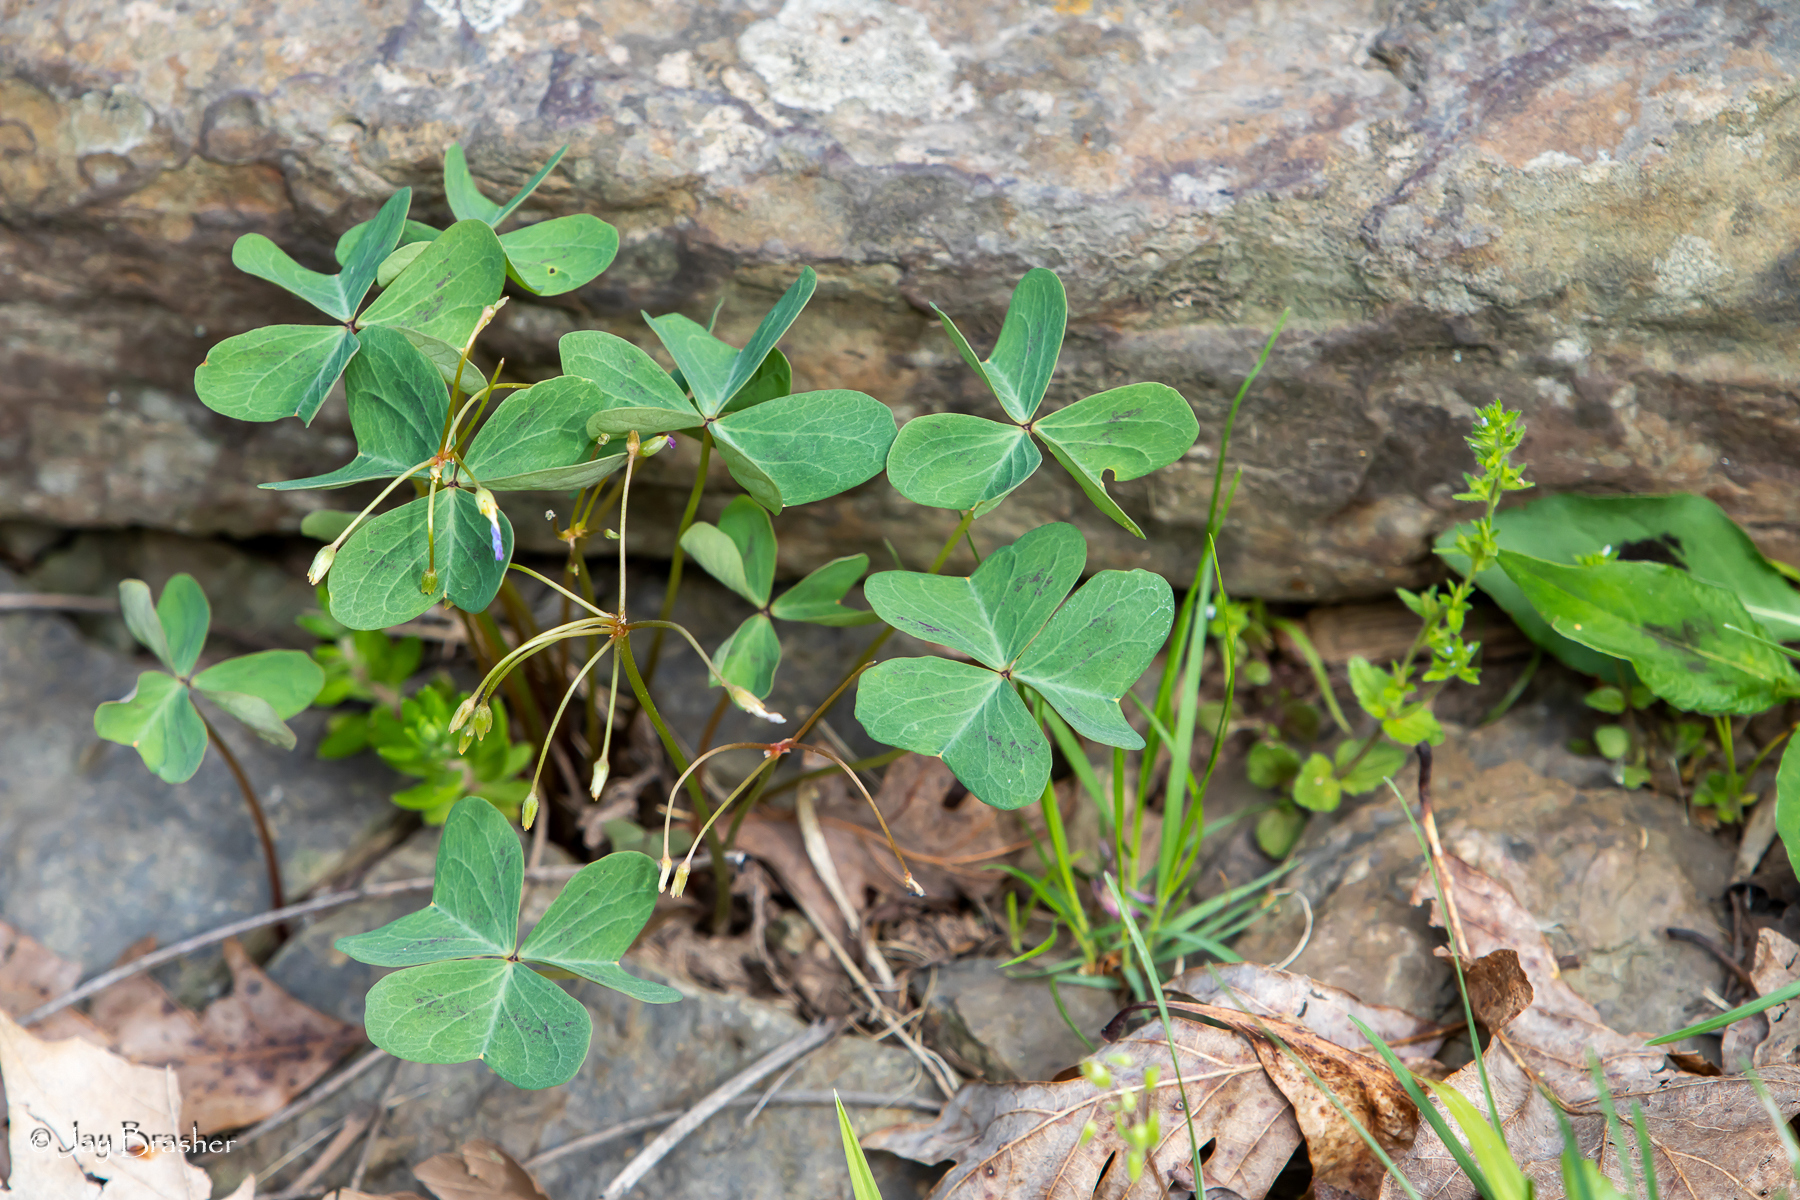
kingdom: Plantae
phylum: Tracheophyta
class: Magnoliopsida
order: Oxalidales
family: Oxalidaceae
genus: Oxalis
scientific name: Oxalis violacea
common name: Violet wood-sorrel
